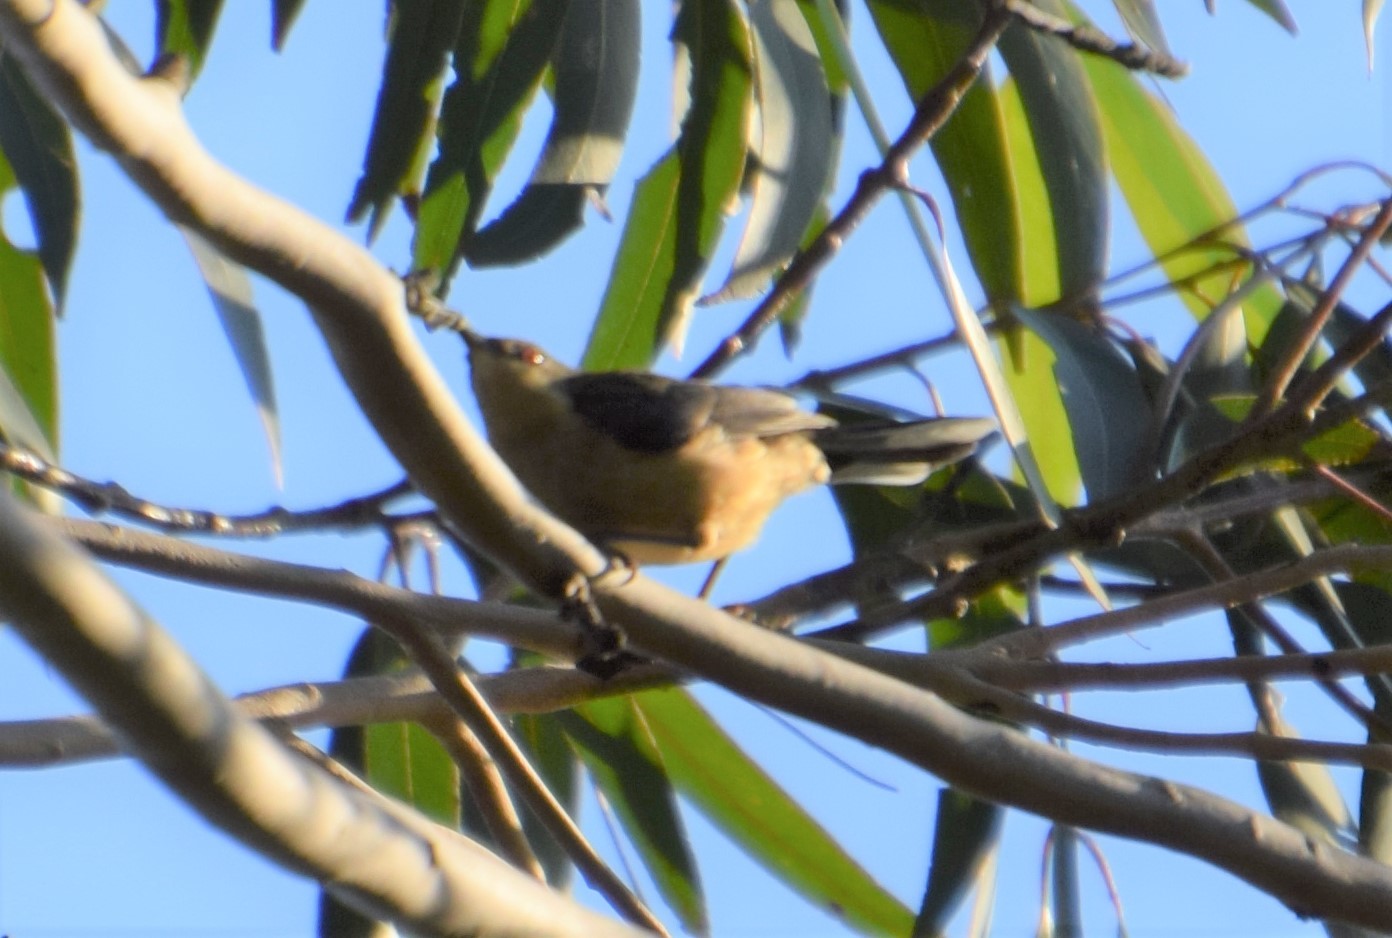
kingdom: Animalia
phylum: Chordata
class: Aves
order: Passeriformes
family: Meliphagidae
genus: Acanthorhynchus
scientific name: Acanthorhynchus tenuirostris
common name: Eastern spinebill
